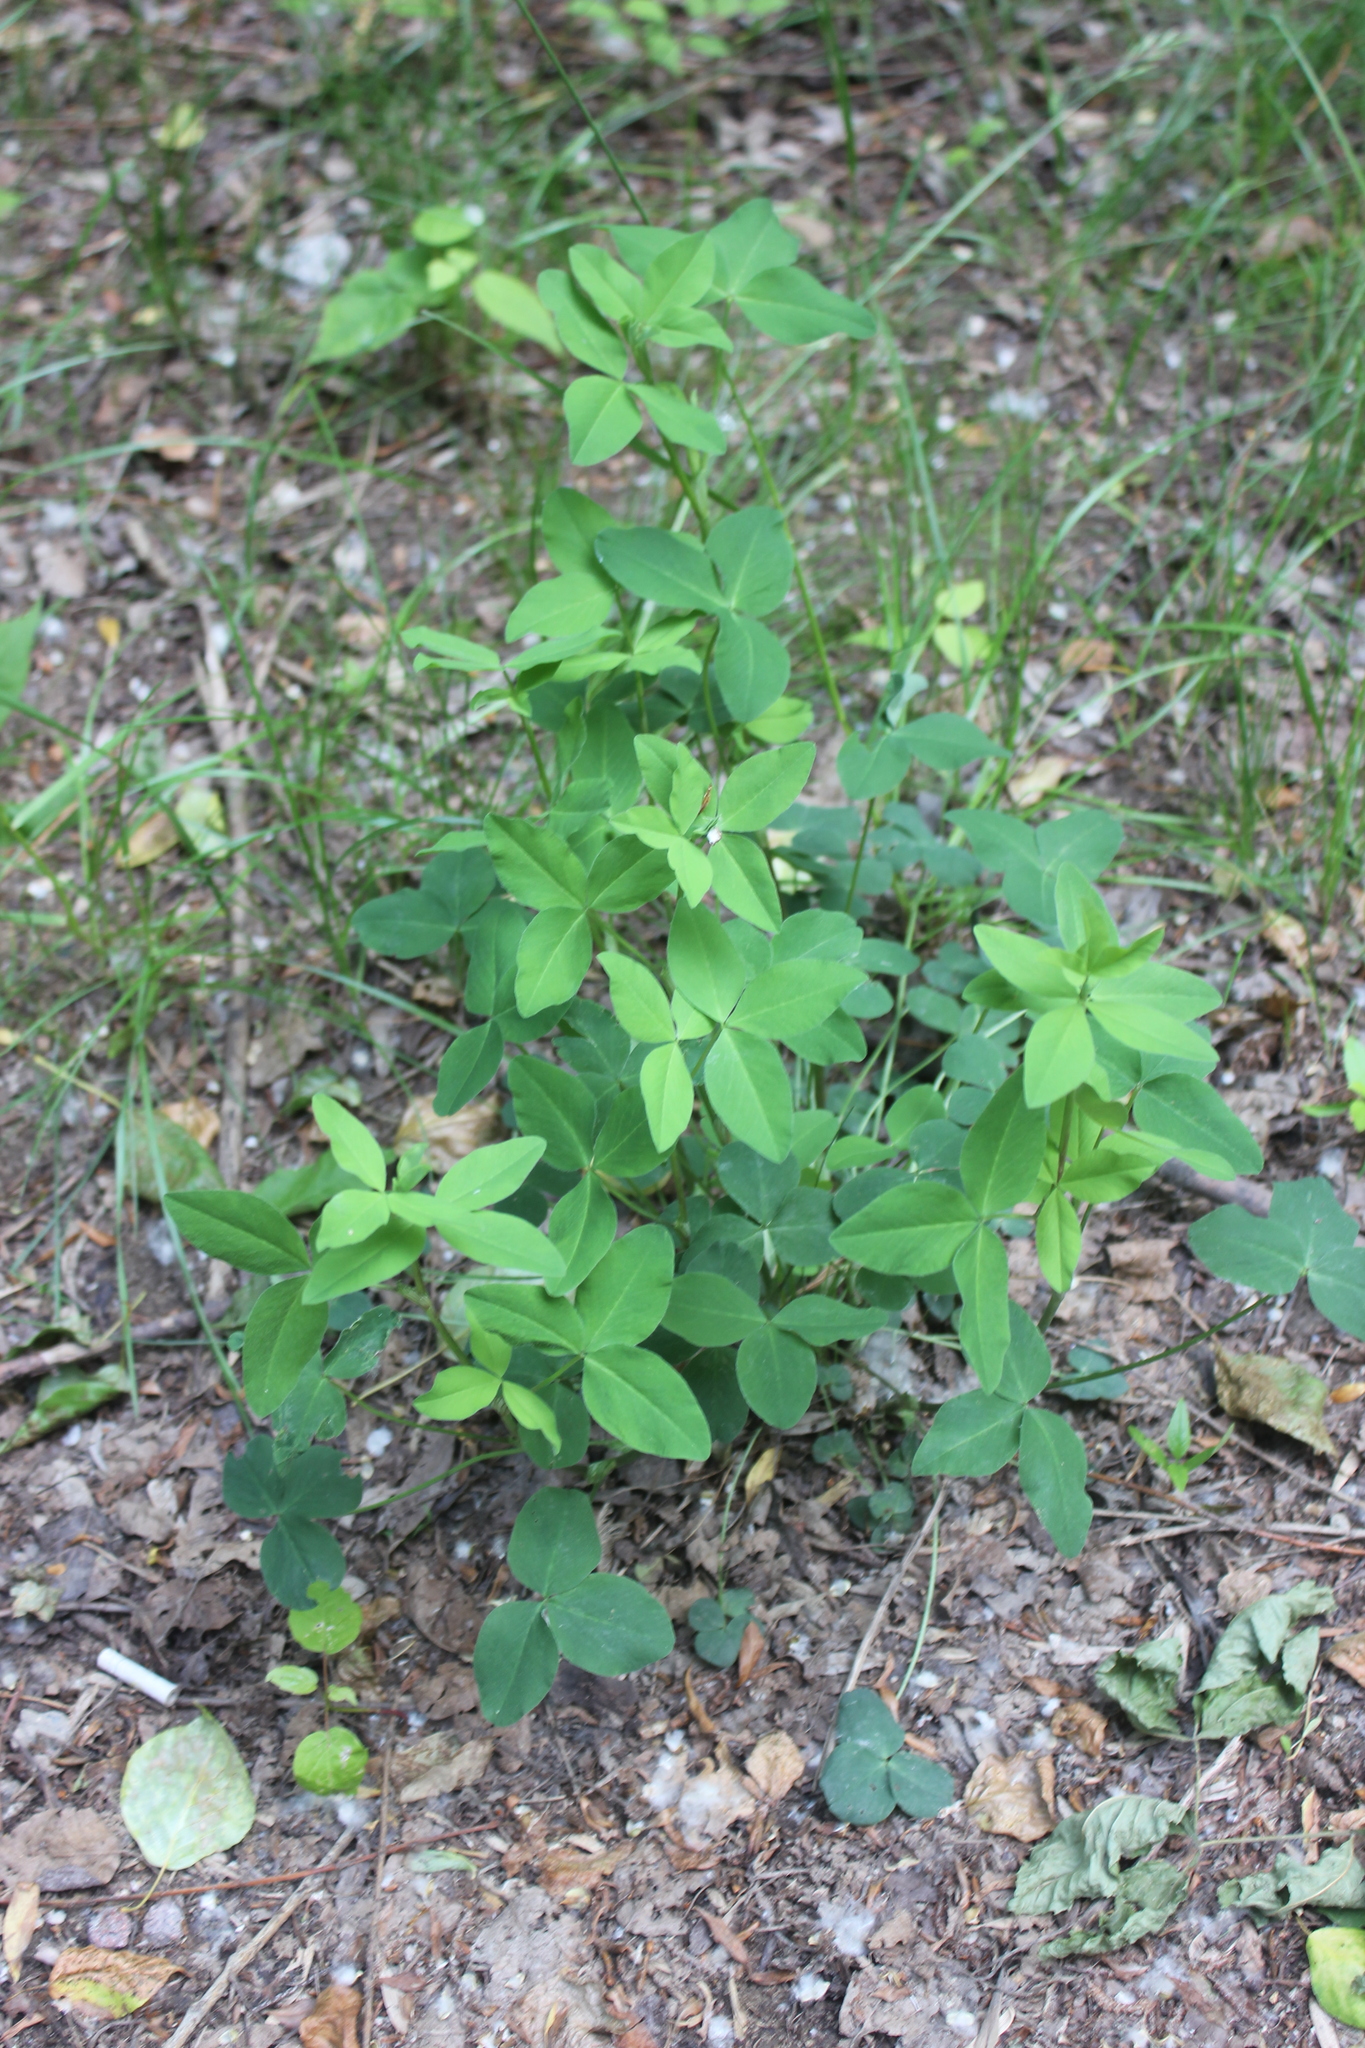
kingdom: Plantae
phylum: Tracheophyta
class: Magnoliopsida
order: Fabales
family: Fabaceae
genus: Trifolium
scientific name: Trifolium hybridum
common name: Alsike clover
